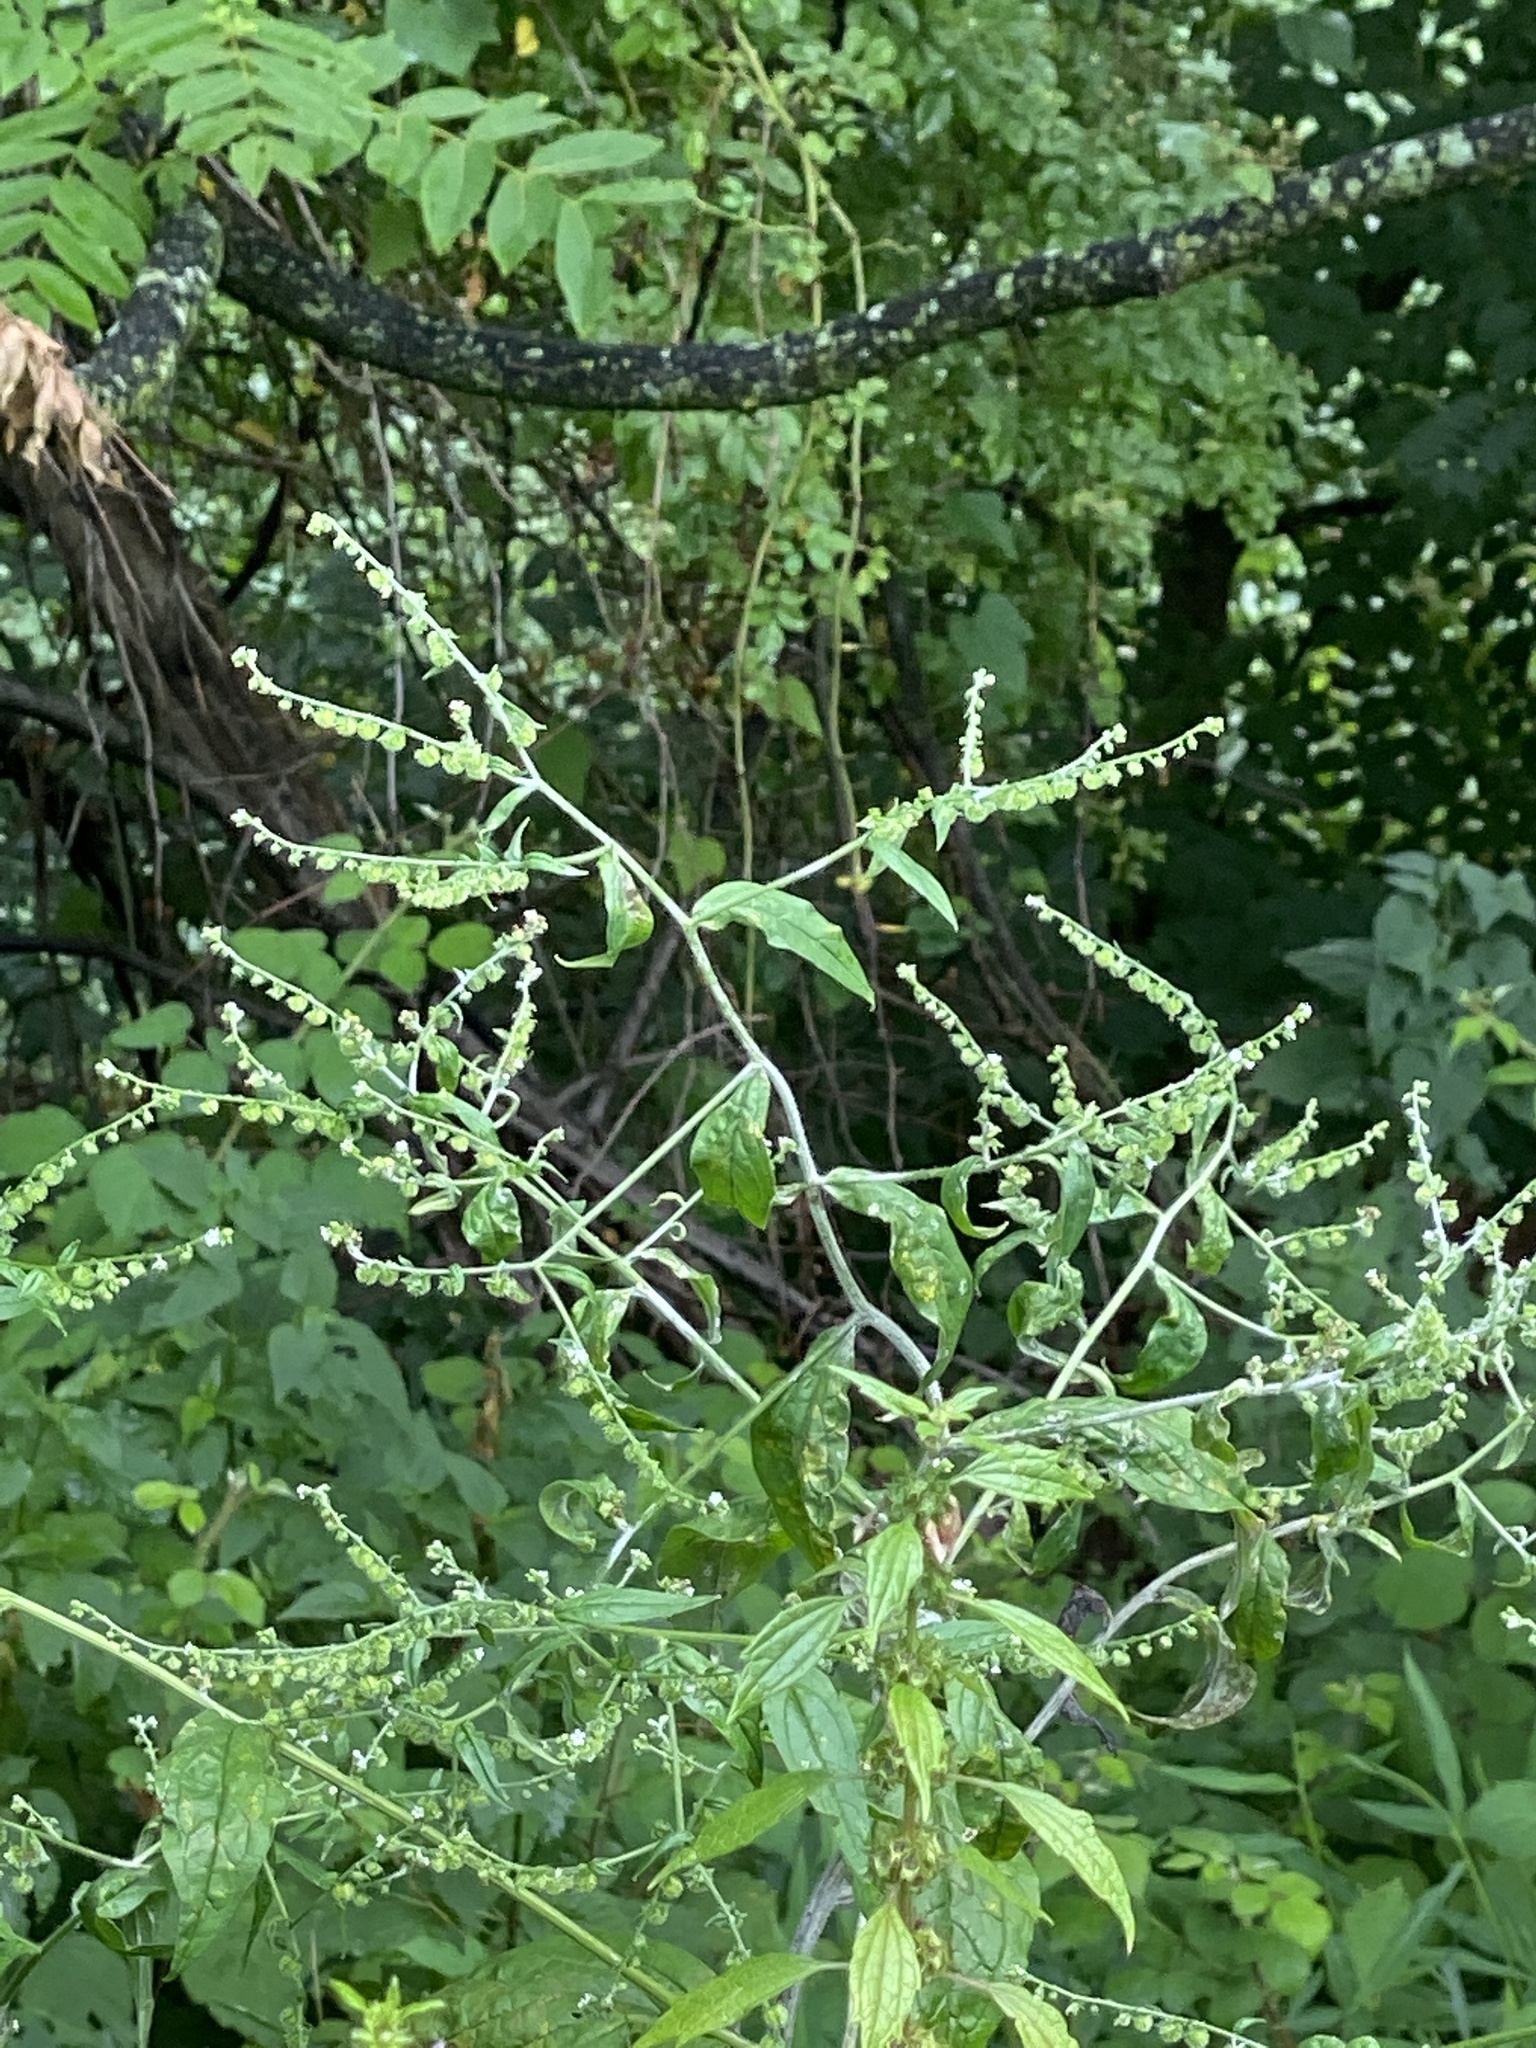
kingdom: Plantae
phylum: Tracheophyta
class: Magnoliopsida
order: Boraginales
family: Boraginaceae
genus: Hackelia
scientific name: Hackelia virginiana
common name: Beggar's-lice
